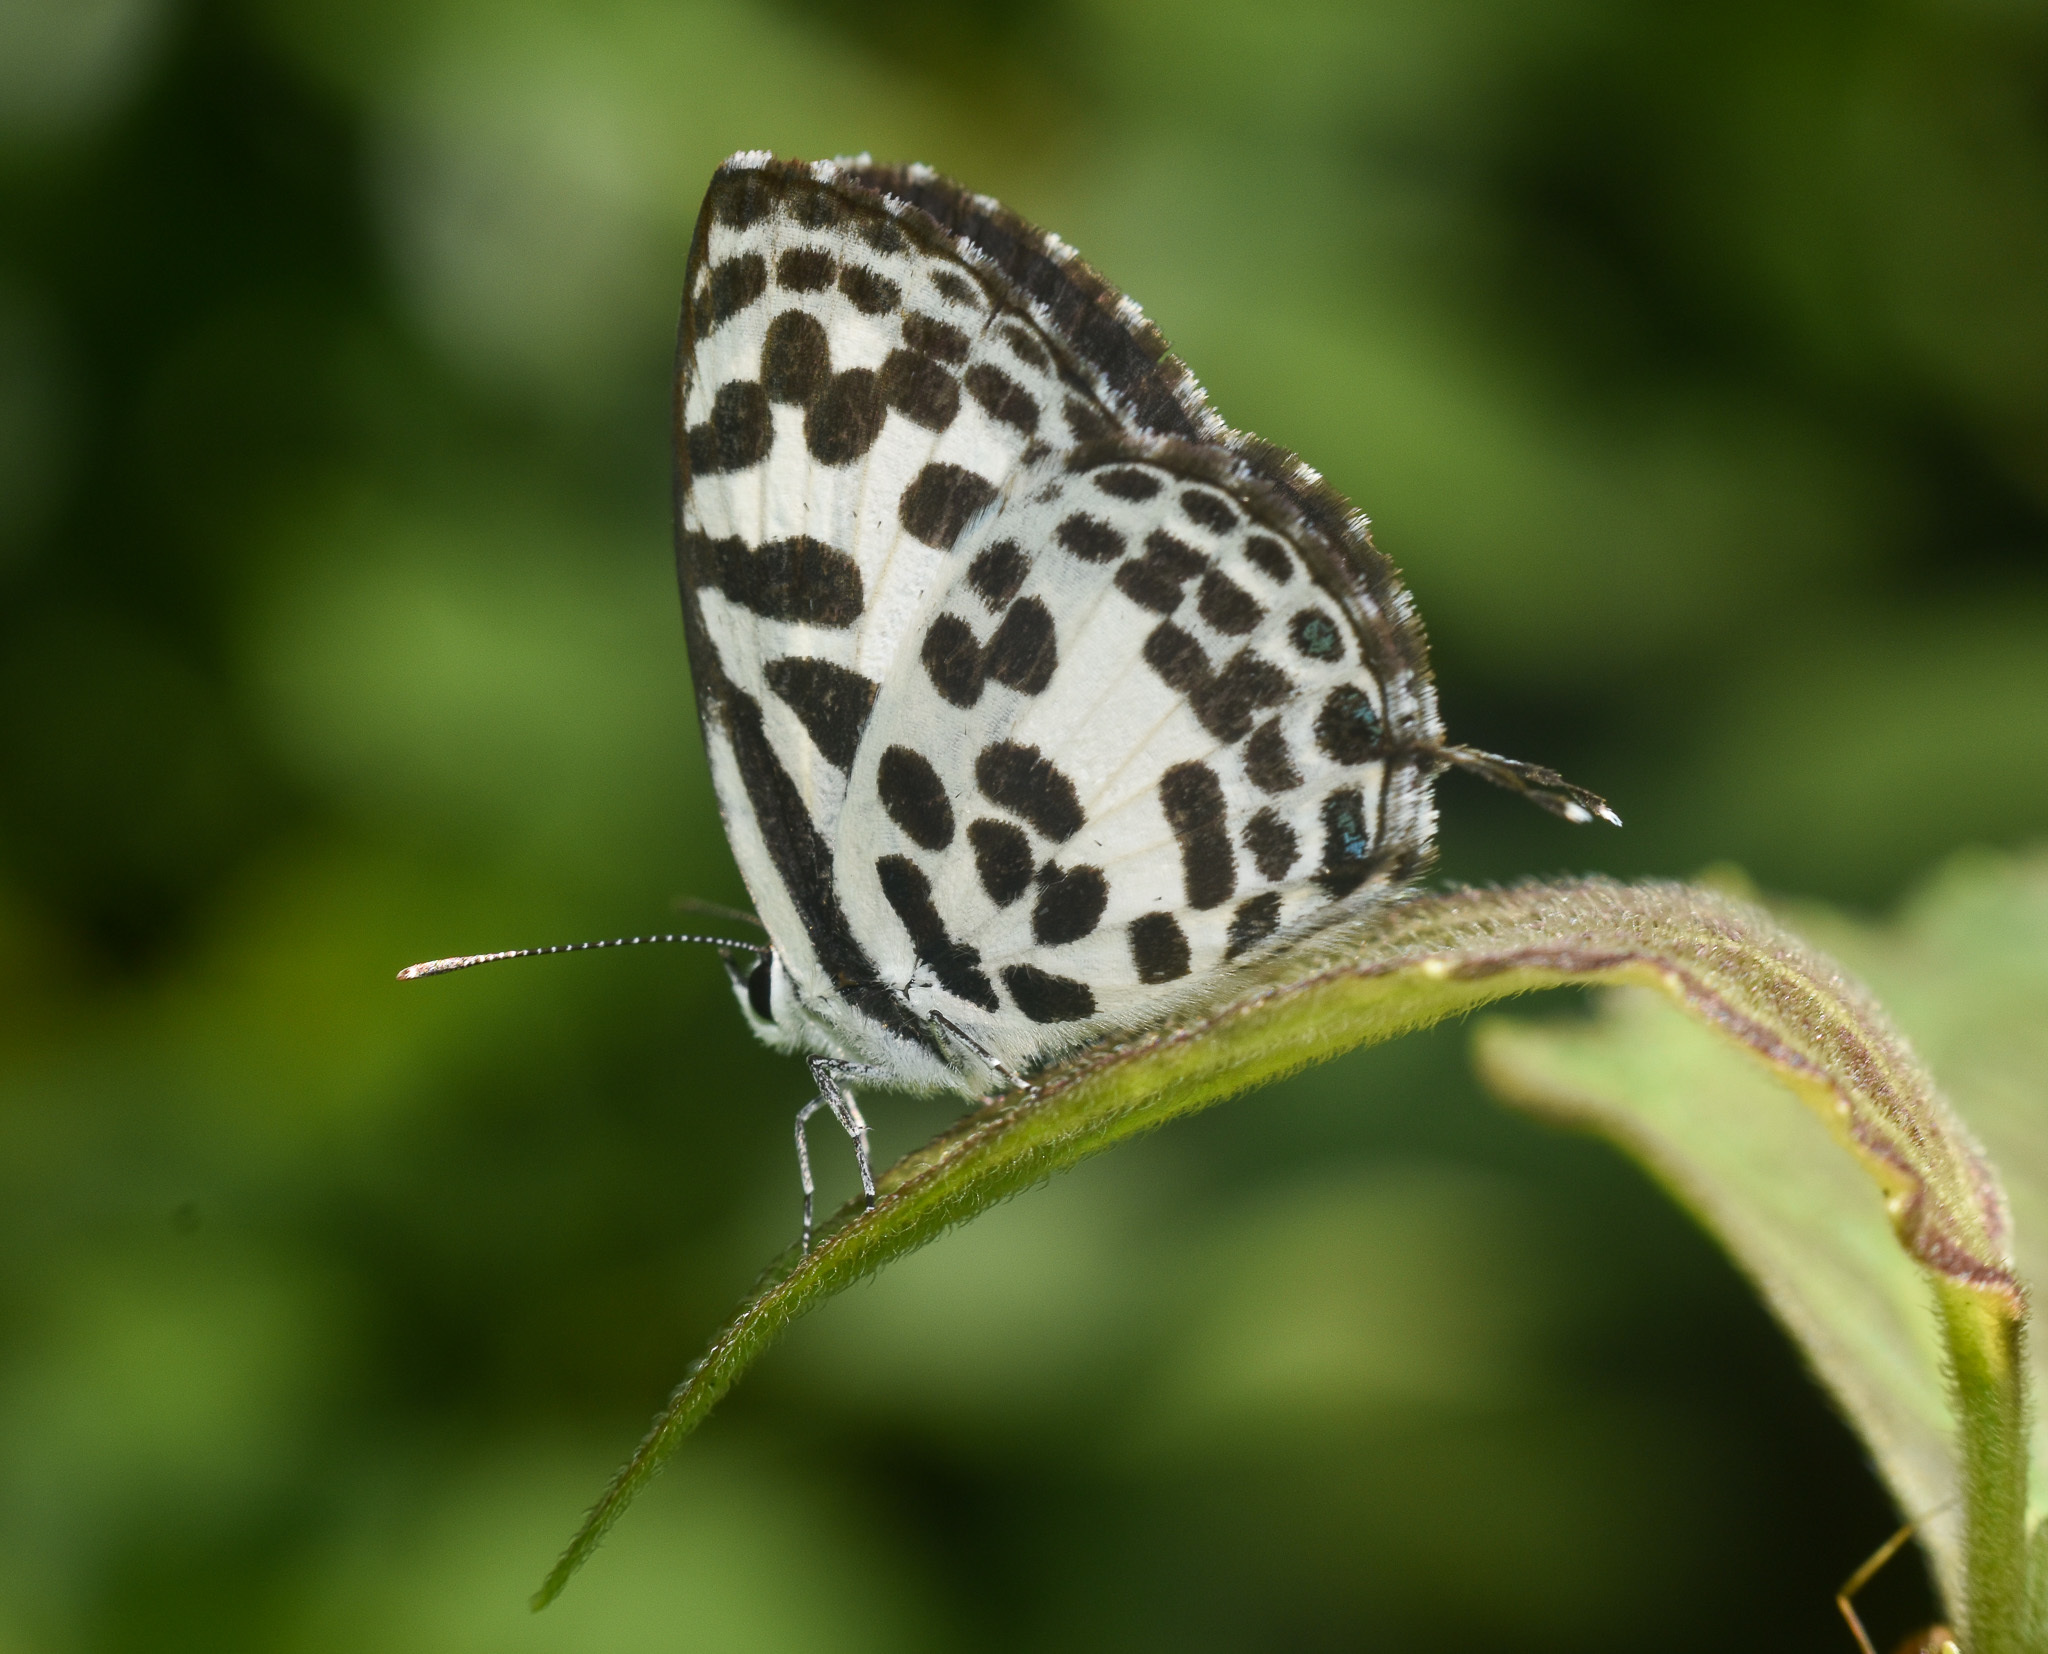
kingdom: Animalia
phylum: Arthropoda
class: Insecta
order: Lepidoptera
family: Lycaenidae
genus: Castalius
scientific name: Castalius rosimon
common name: Common pierrot
